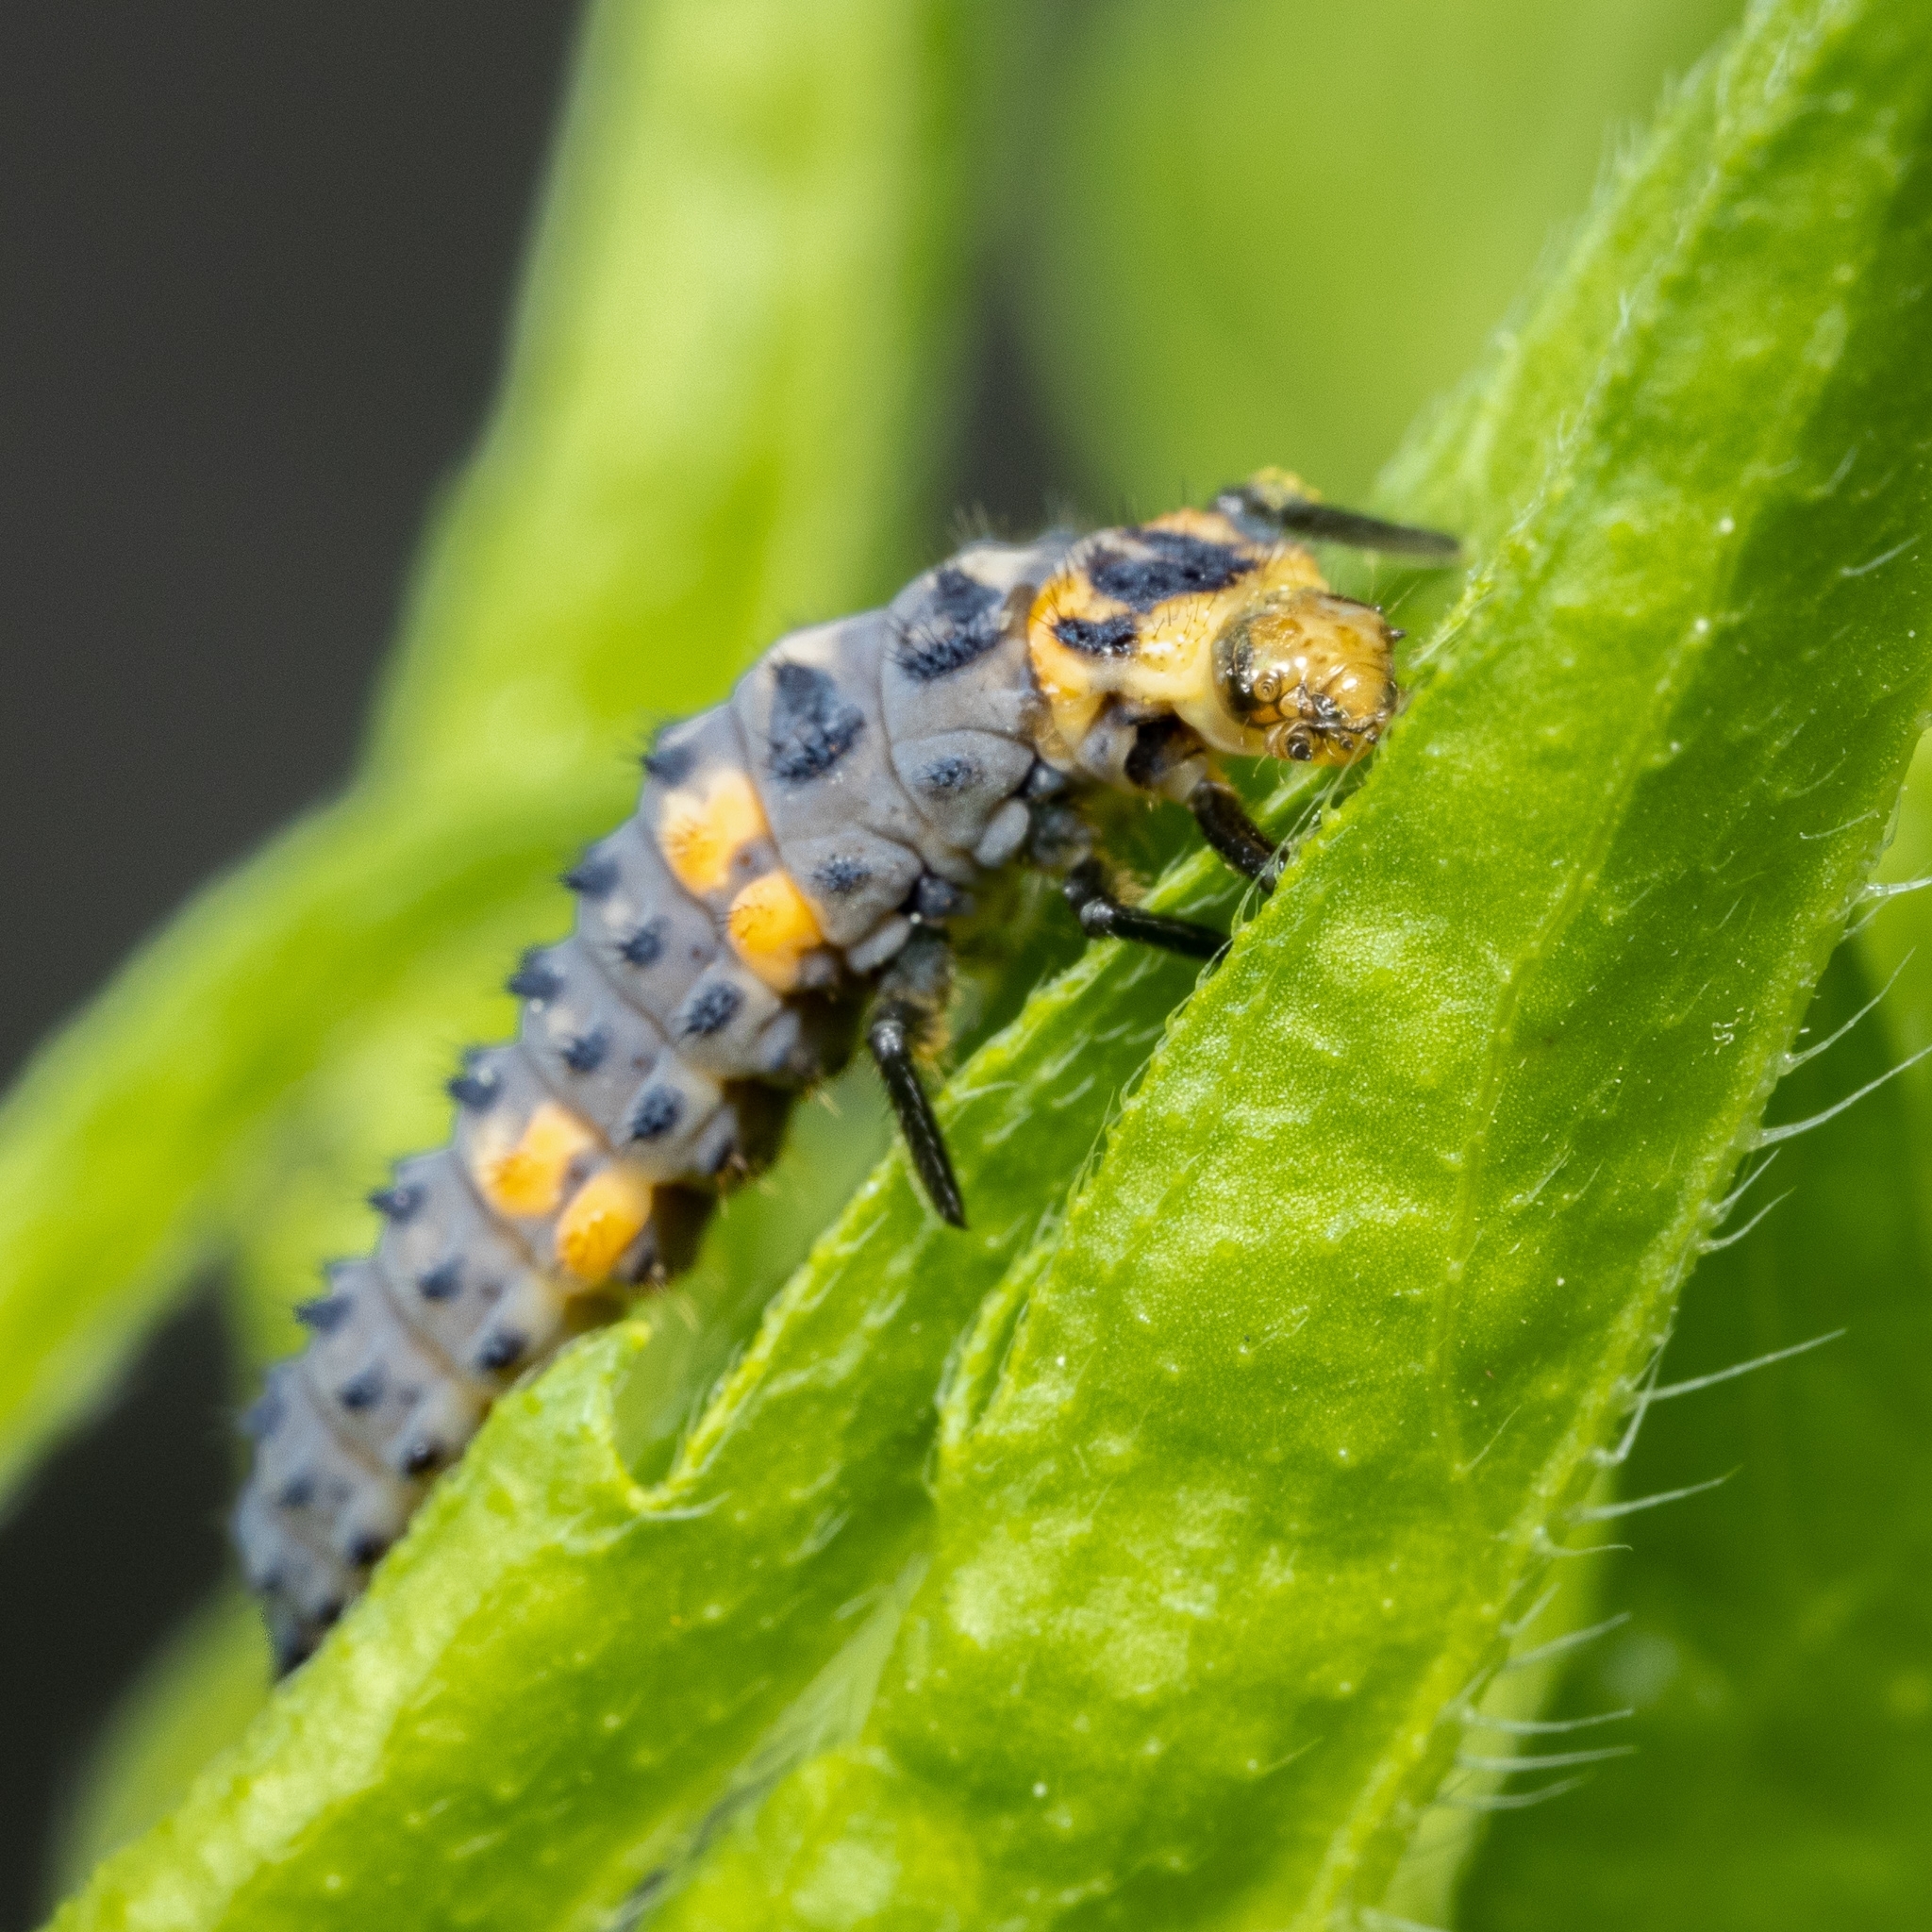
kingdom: Animalia
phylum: Arthropoda
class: Insecta
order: Coleoptera
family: Coccinellidae
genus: Coccinella
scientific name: Coccinella septempunctata
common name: Sevenspotted lady beetle
